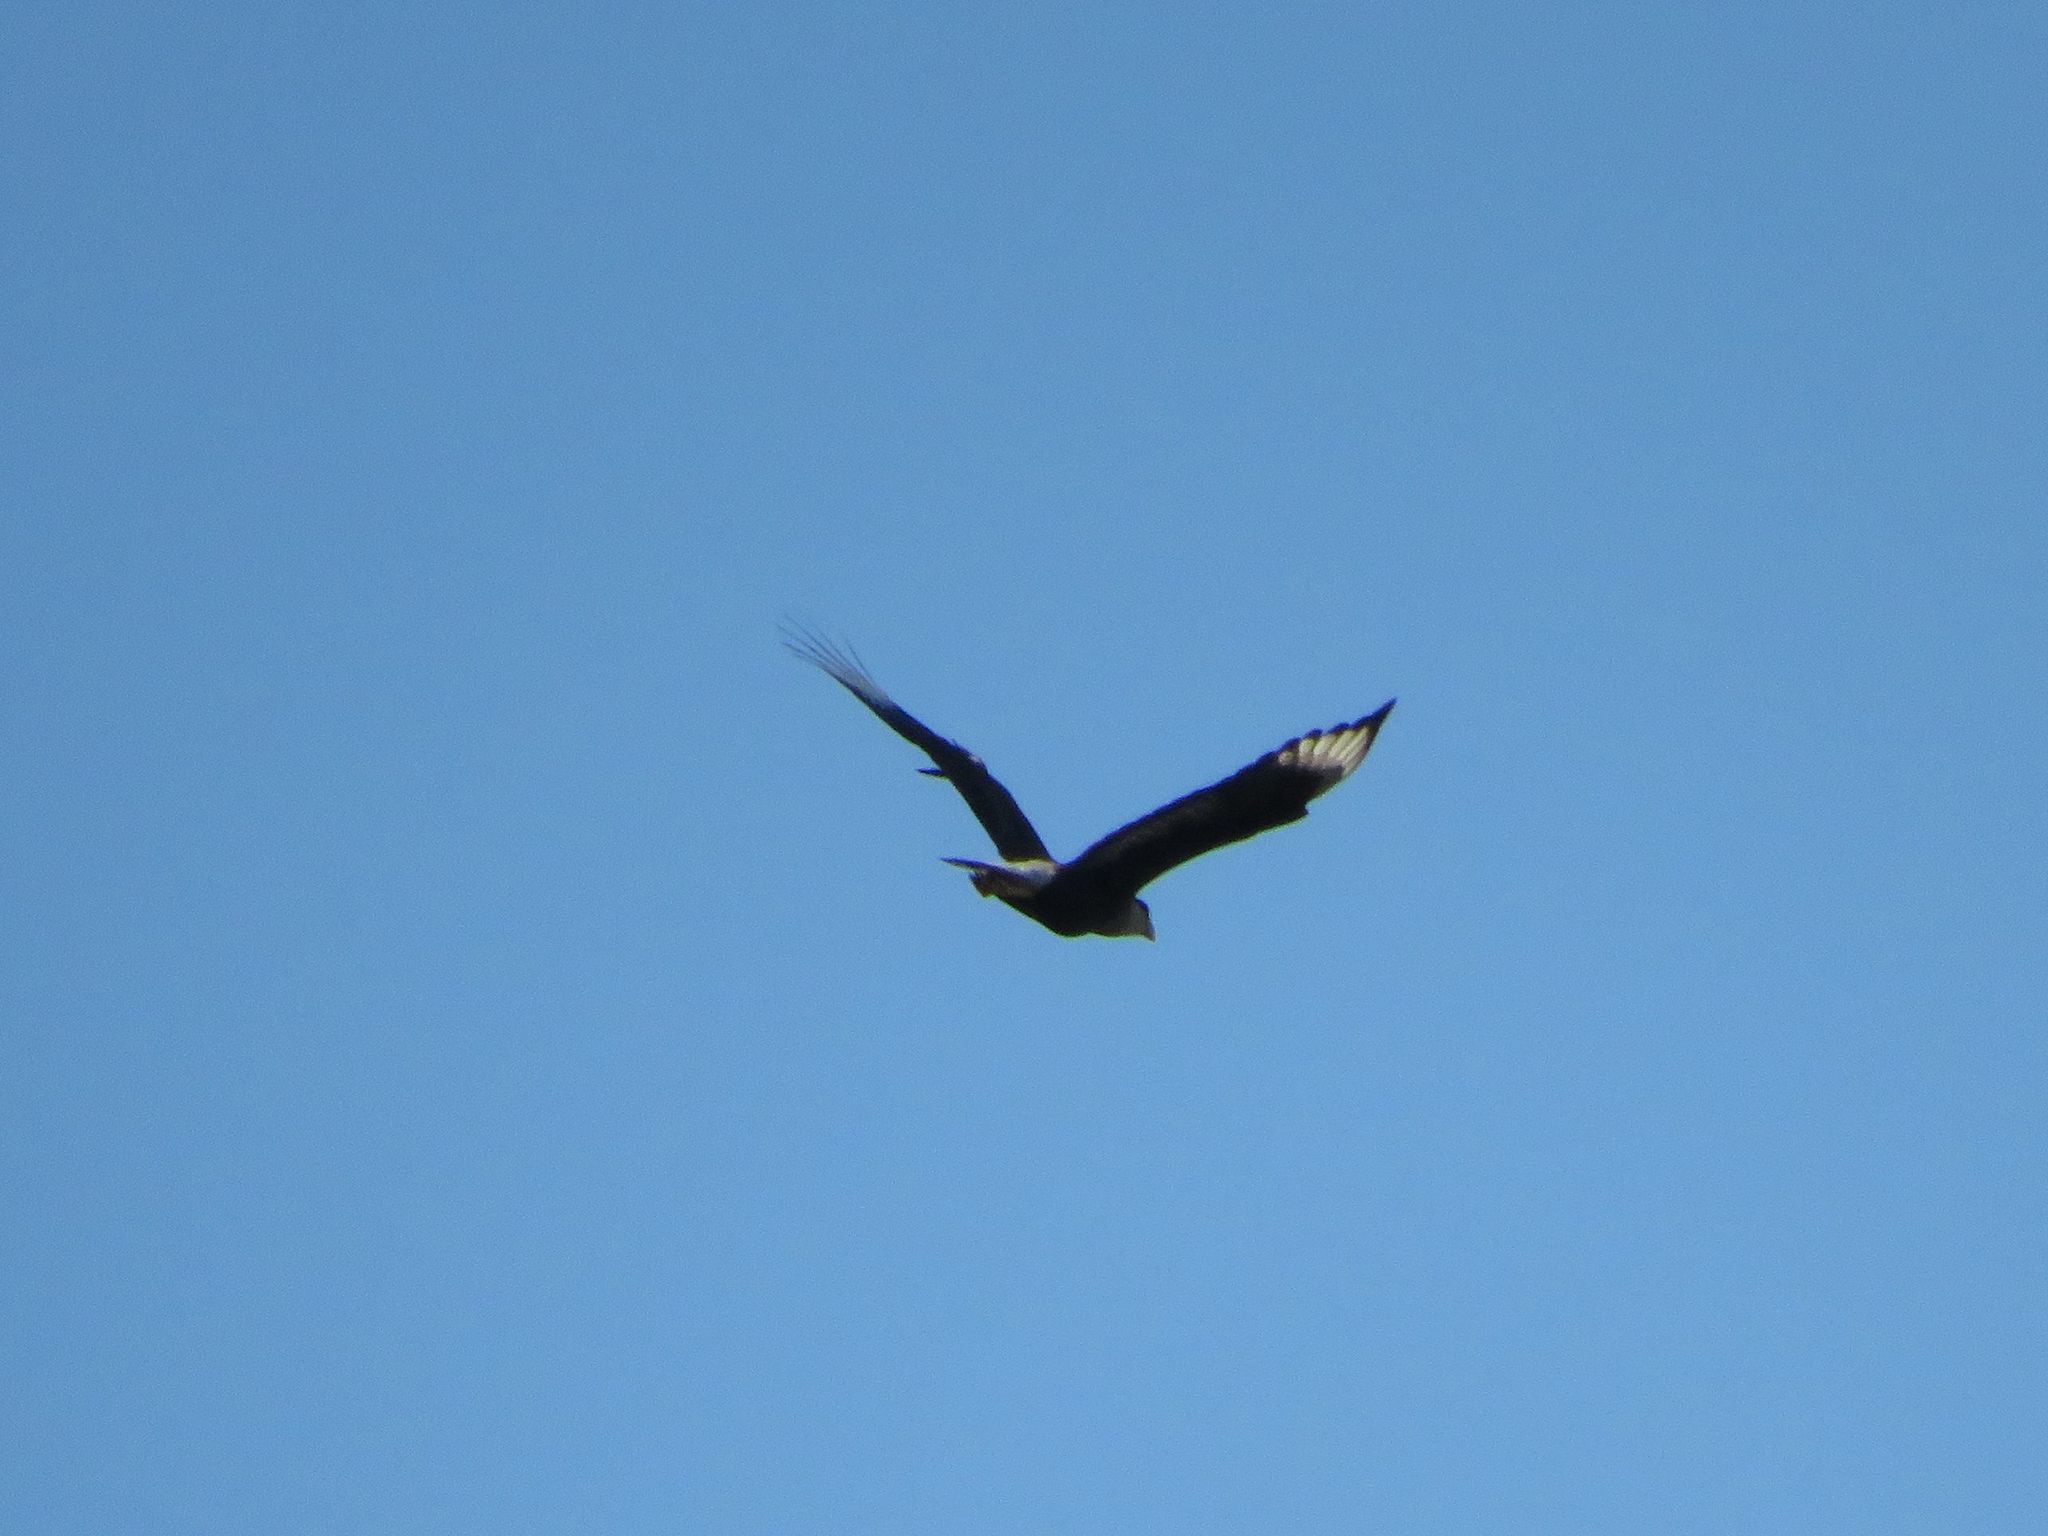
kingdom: Animalia
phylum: Chordata
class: Aves
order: Falconiformes
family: Falconidae
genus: Caracara
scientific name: Caracara plancus
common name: Southern caracara
